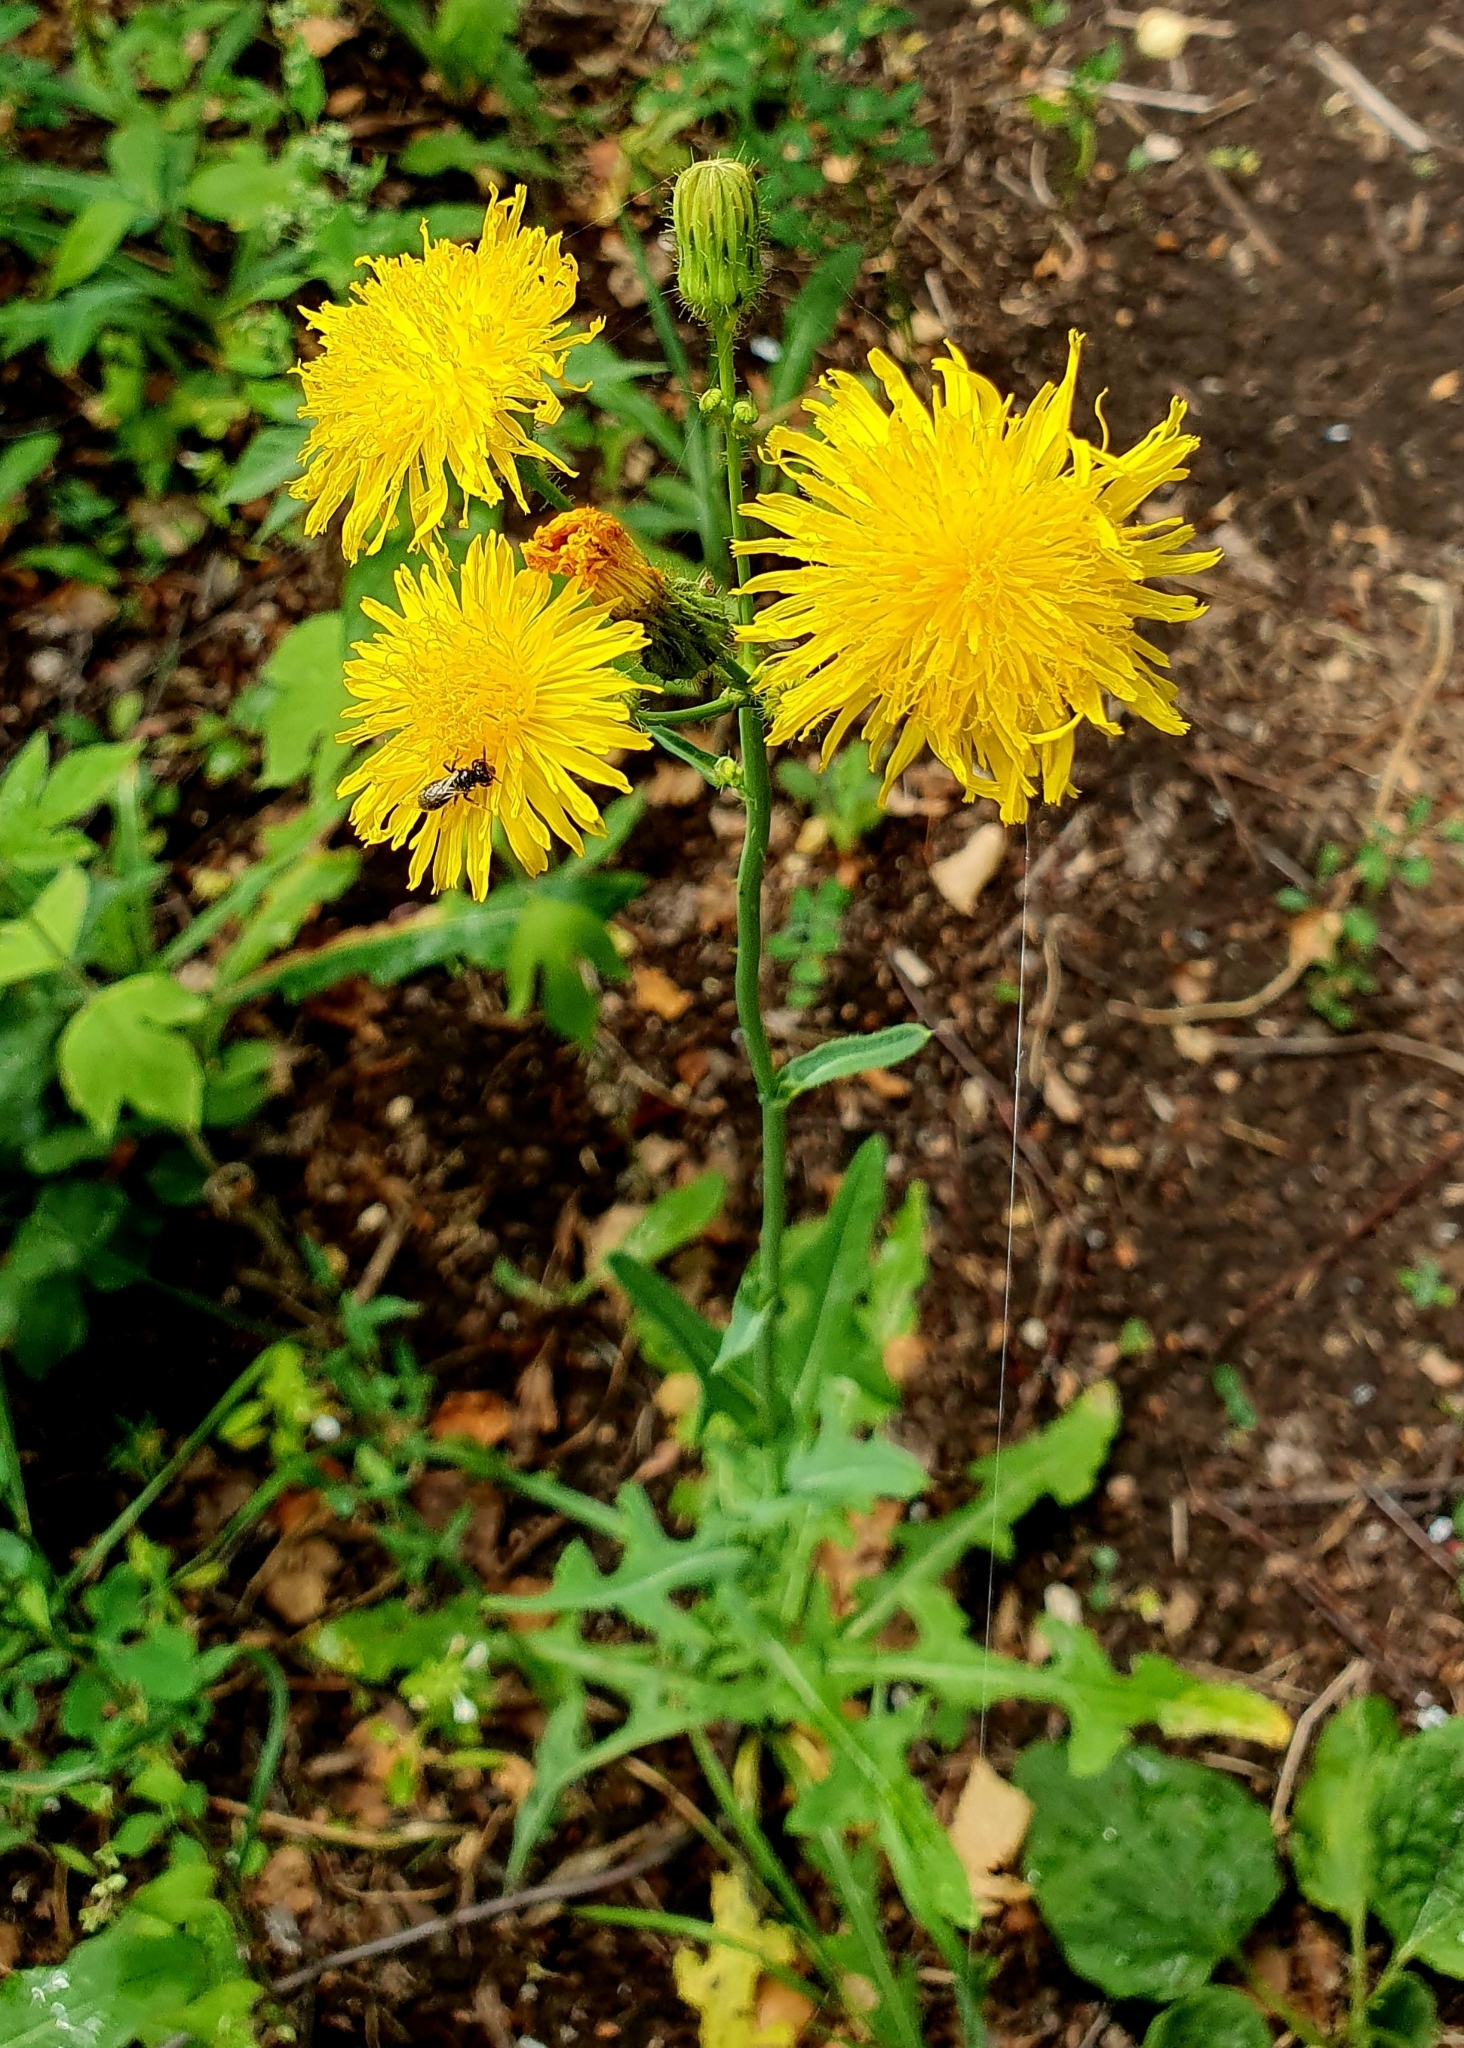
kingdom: Plantae
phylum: Tracheophyta
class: Magnoliopsida
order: Asterales
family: Asteraceae
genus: Sonchus
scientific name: Sonchus arvensis
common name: Perennial sow-thistle
